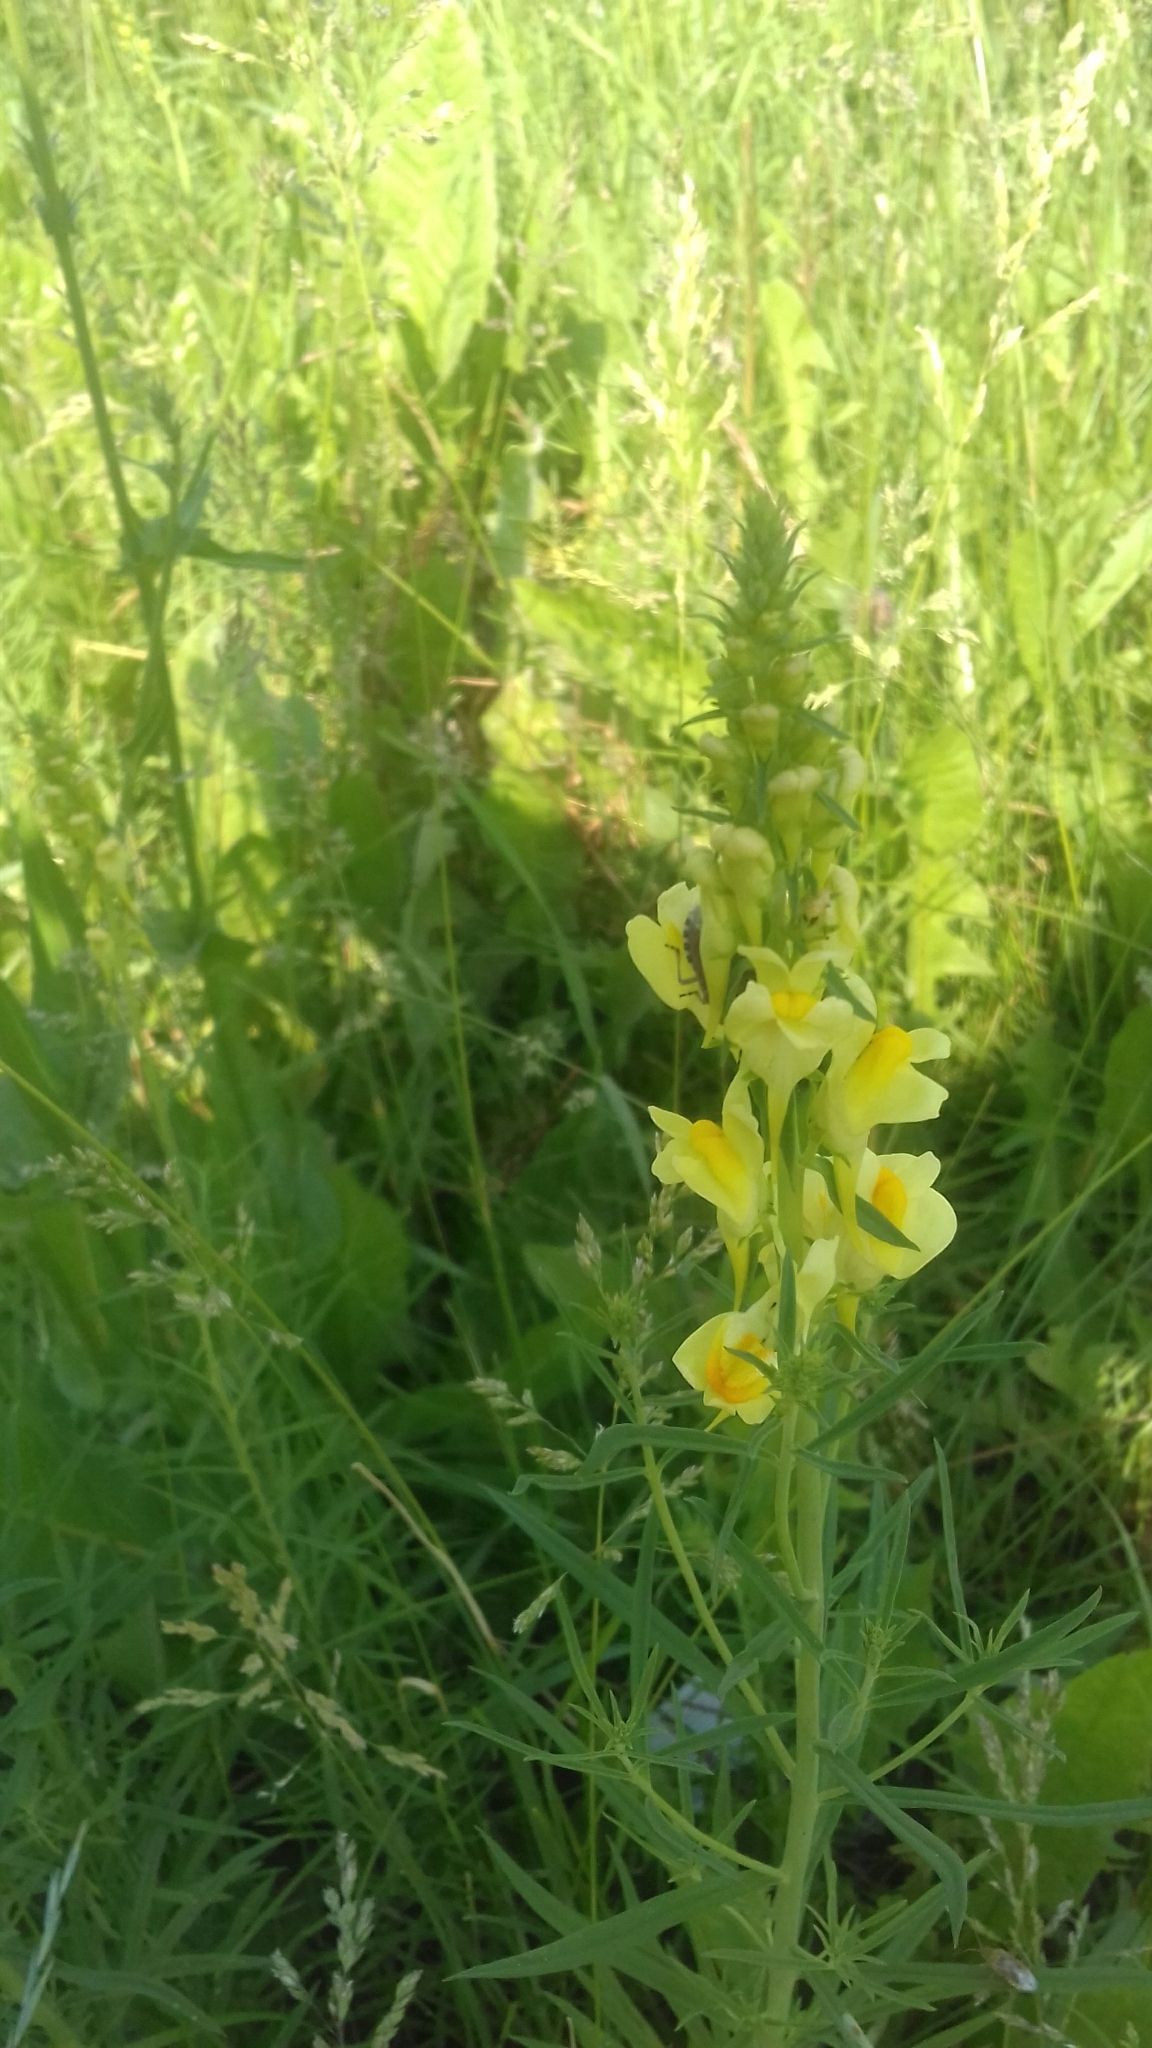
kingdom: Plantae
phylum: Tracheophyta
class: Magnoliopsida
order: Lamiales
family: Plantaginaceae
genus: Linaria
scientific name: Linaria vulgaris
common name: Butter and eggs
